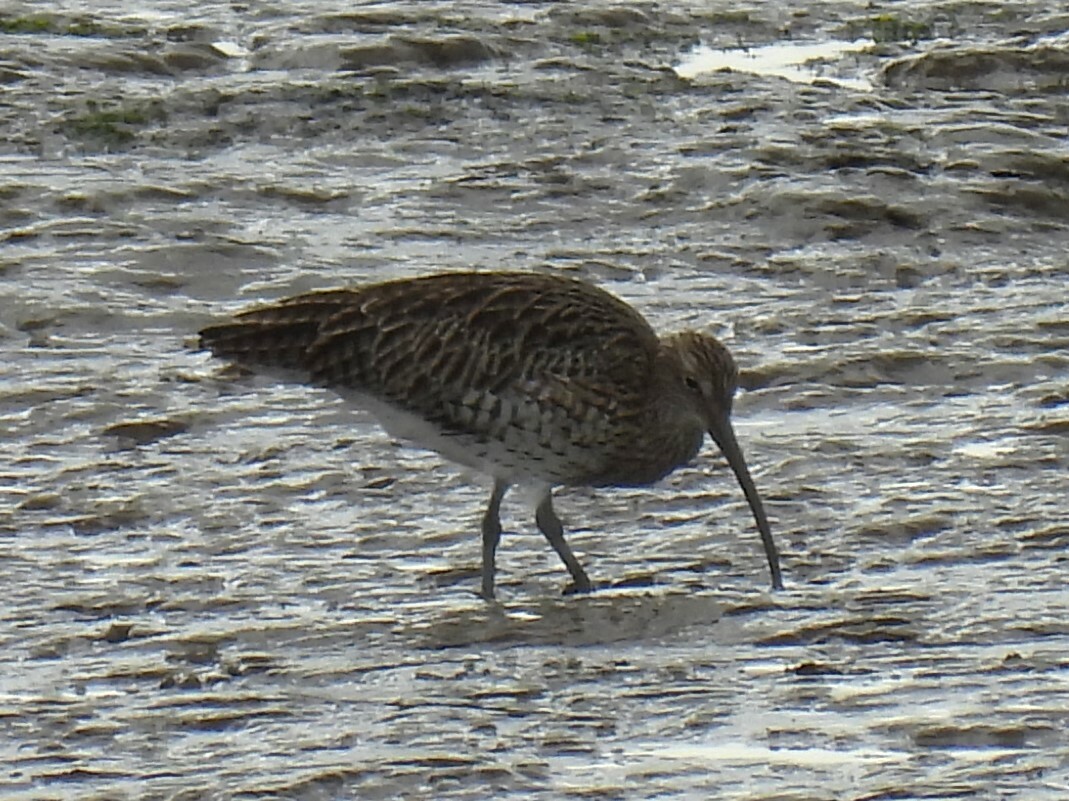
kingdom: Animalia
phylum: Chordata
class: Aves
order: Charadriiformes
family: Scolopacidae
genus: Numenius
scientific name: Numenius arquata
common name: Eurasian curlew
